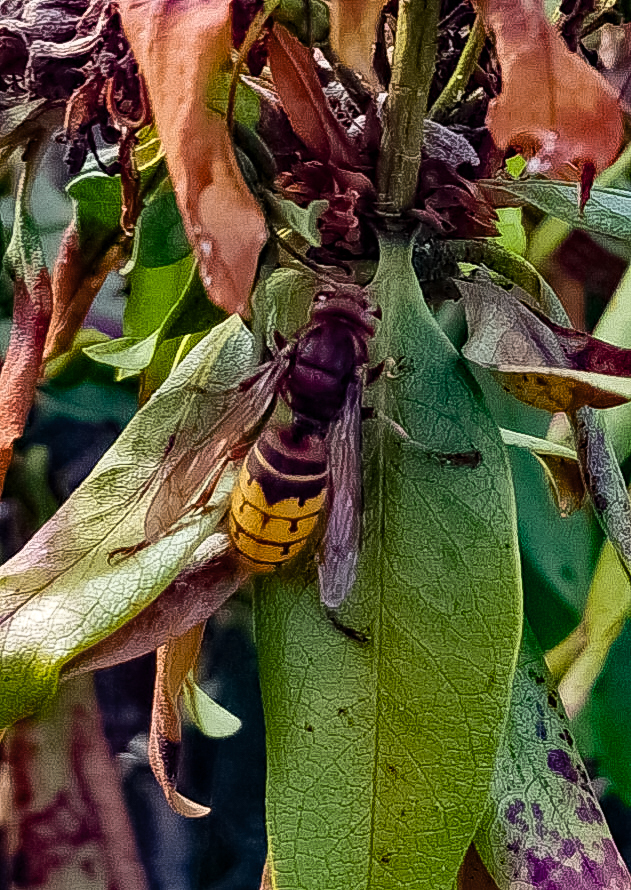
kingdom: Animalia
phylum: Arthropoda
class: Insecta
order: Hymenoptera
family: Vespidae
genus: Vespa
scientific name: Vespa crabro
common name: Hornet
